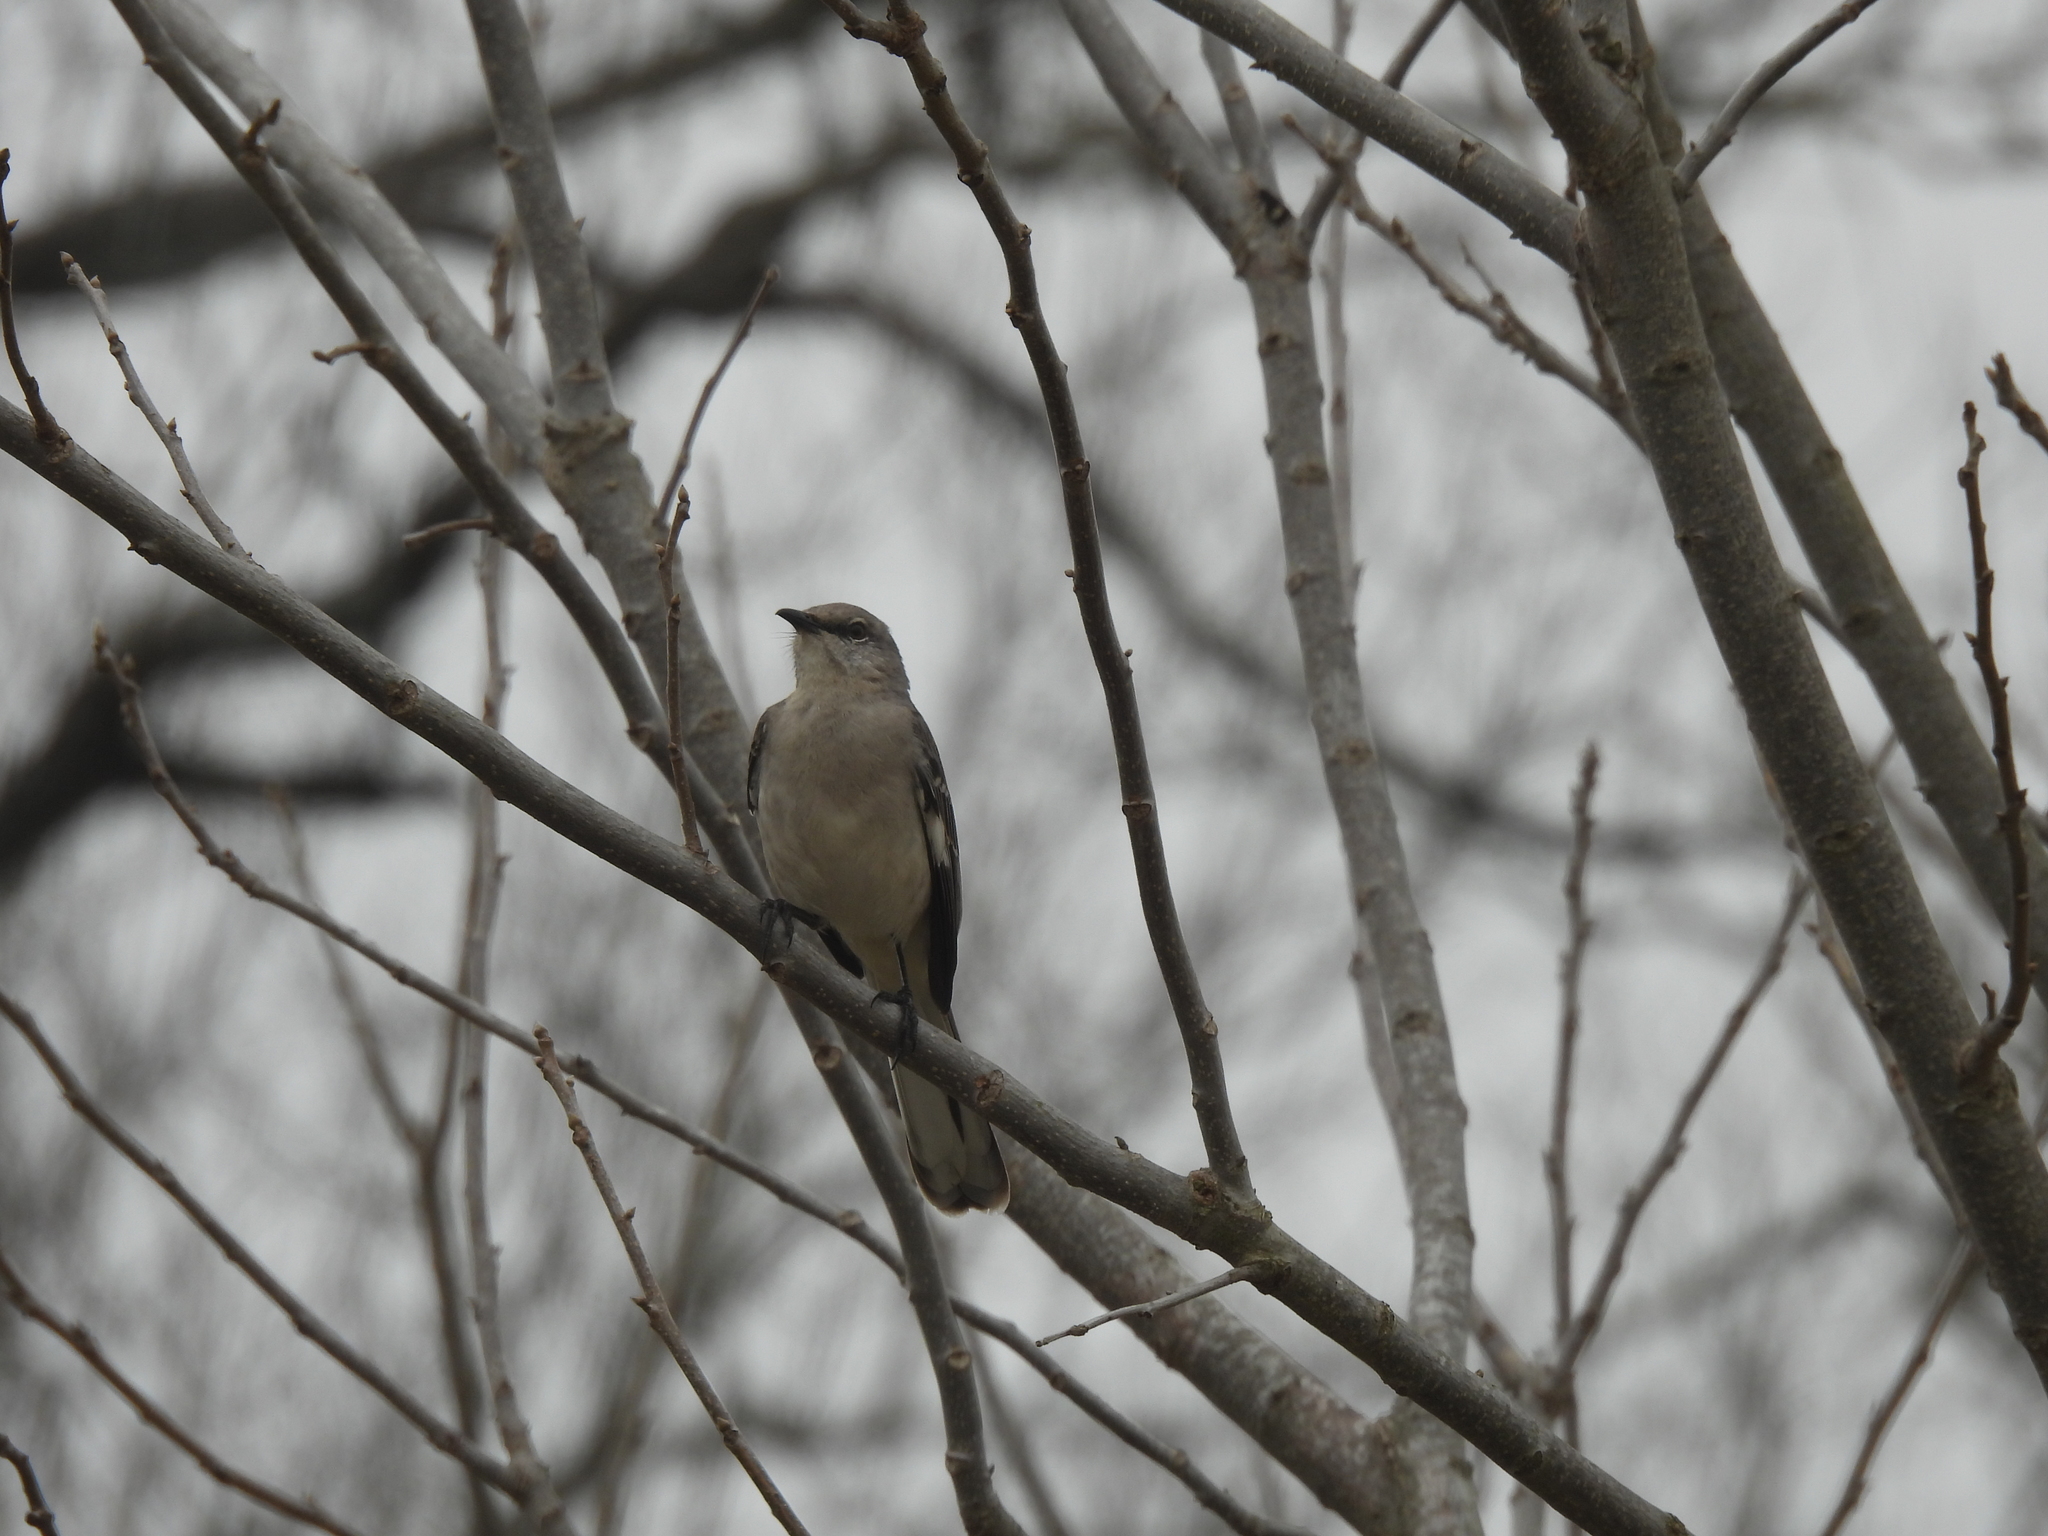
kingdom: Animalia
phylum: Chordata
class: Aves
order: Passeriformes
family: Mimidae
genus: Mimus
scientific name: Mimus polyglottos
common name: Northern mockingbird
